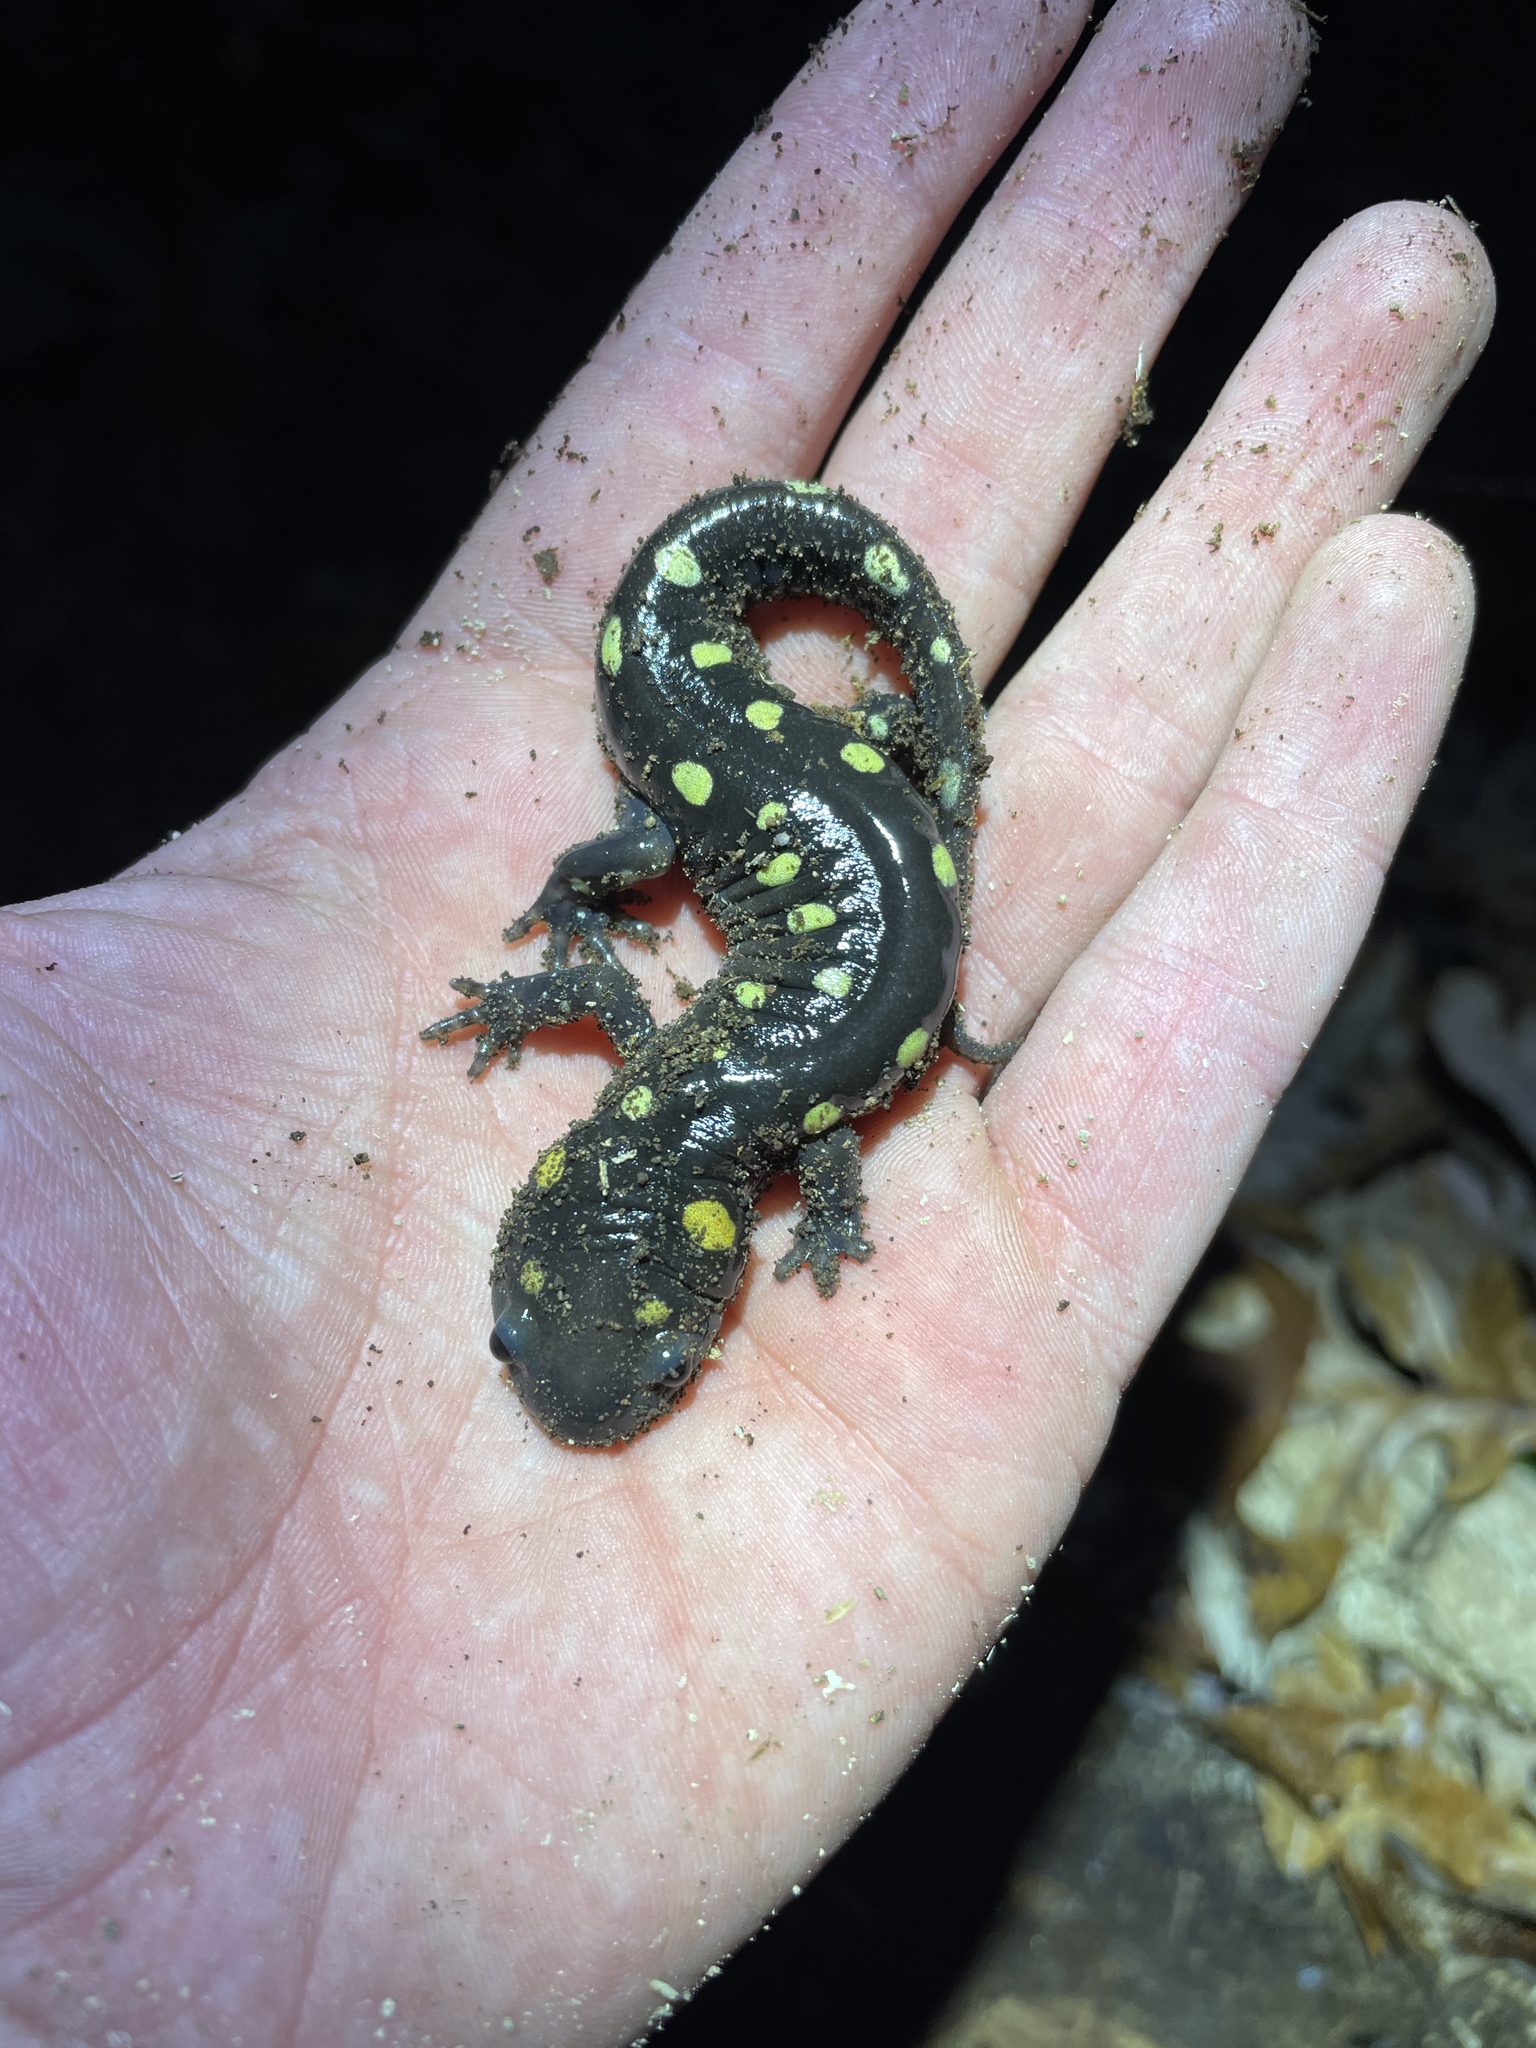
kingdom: Animalia
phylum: Chordata
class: Amphibia
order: Caudata
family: Ambystomatidae
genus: Ambystoma
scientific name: Ambystoma maculatum
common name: Spotted salamander
